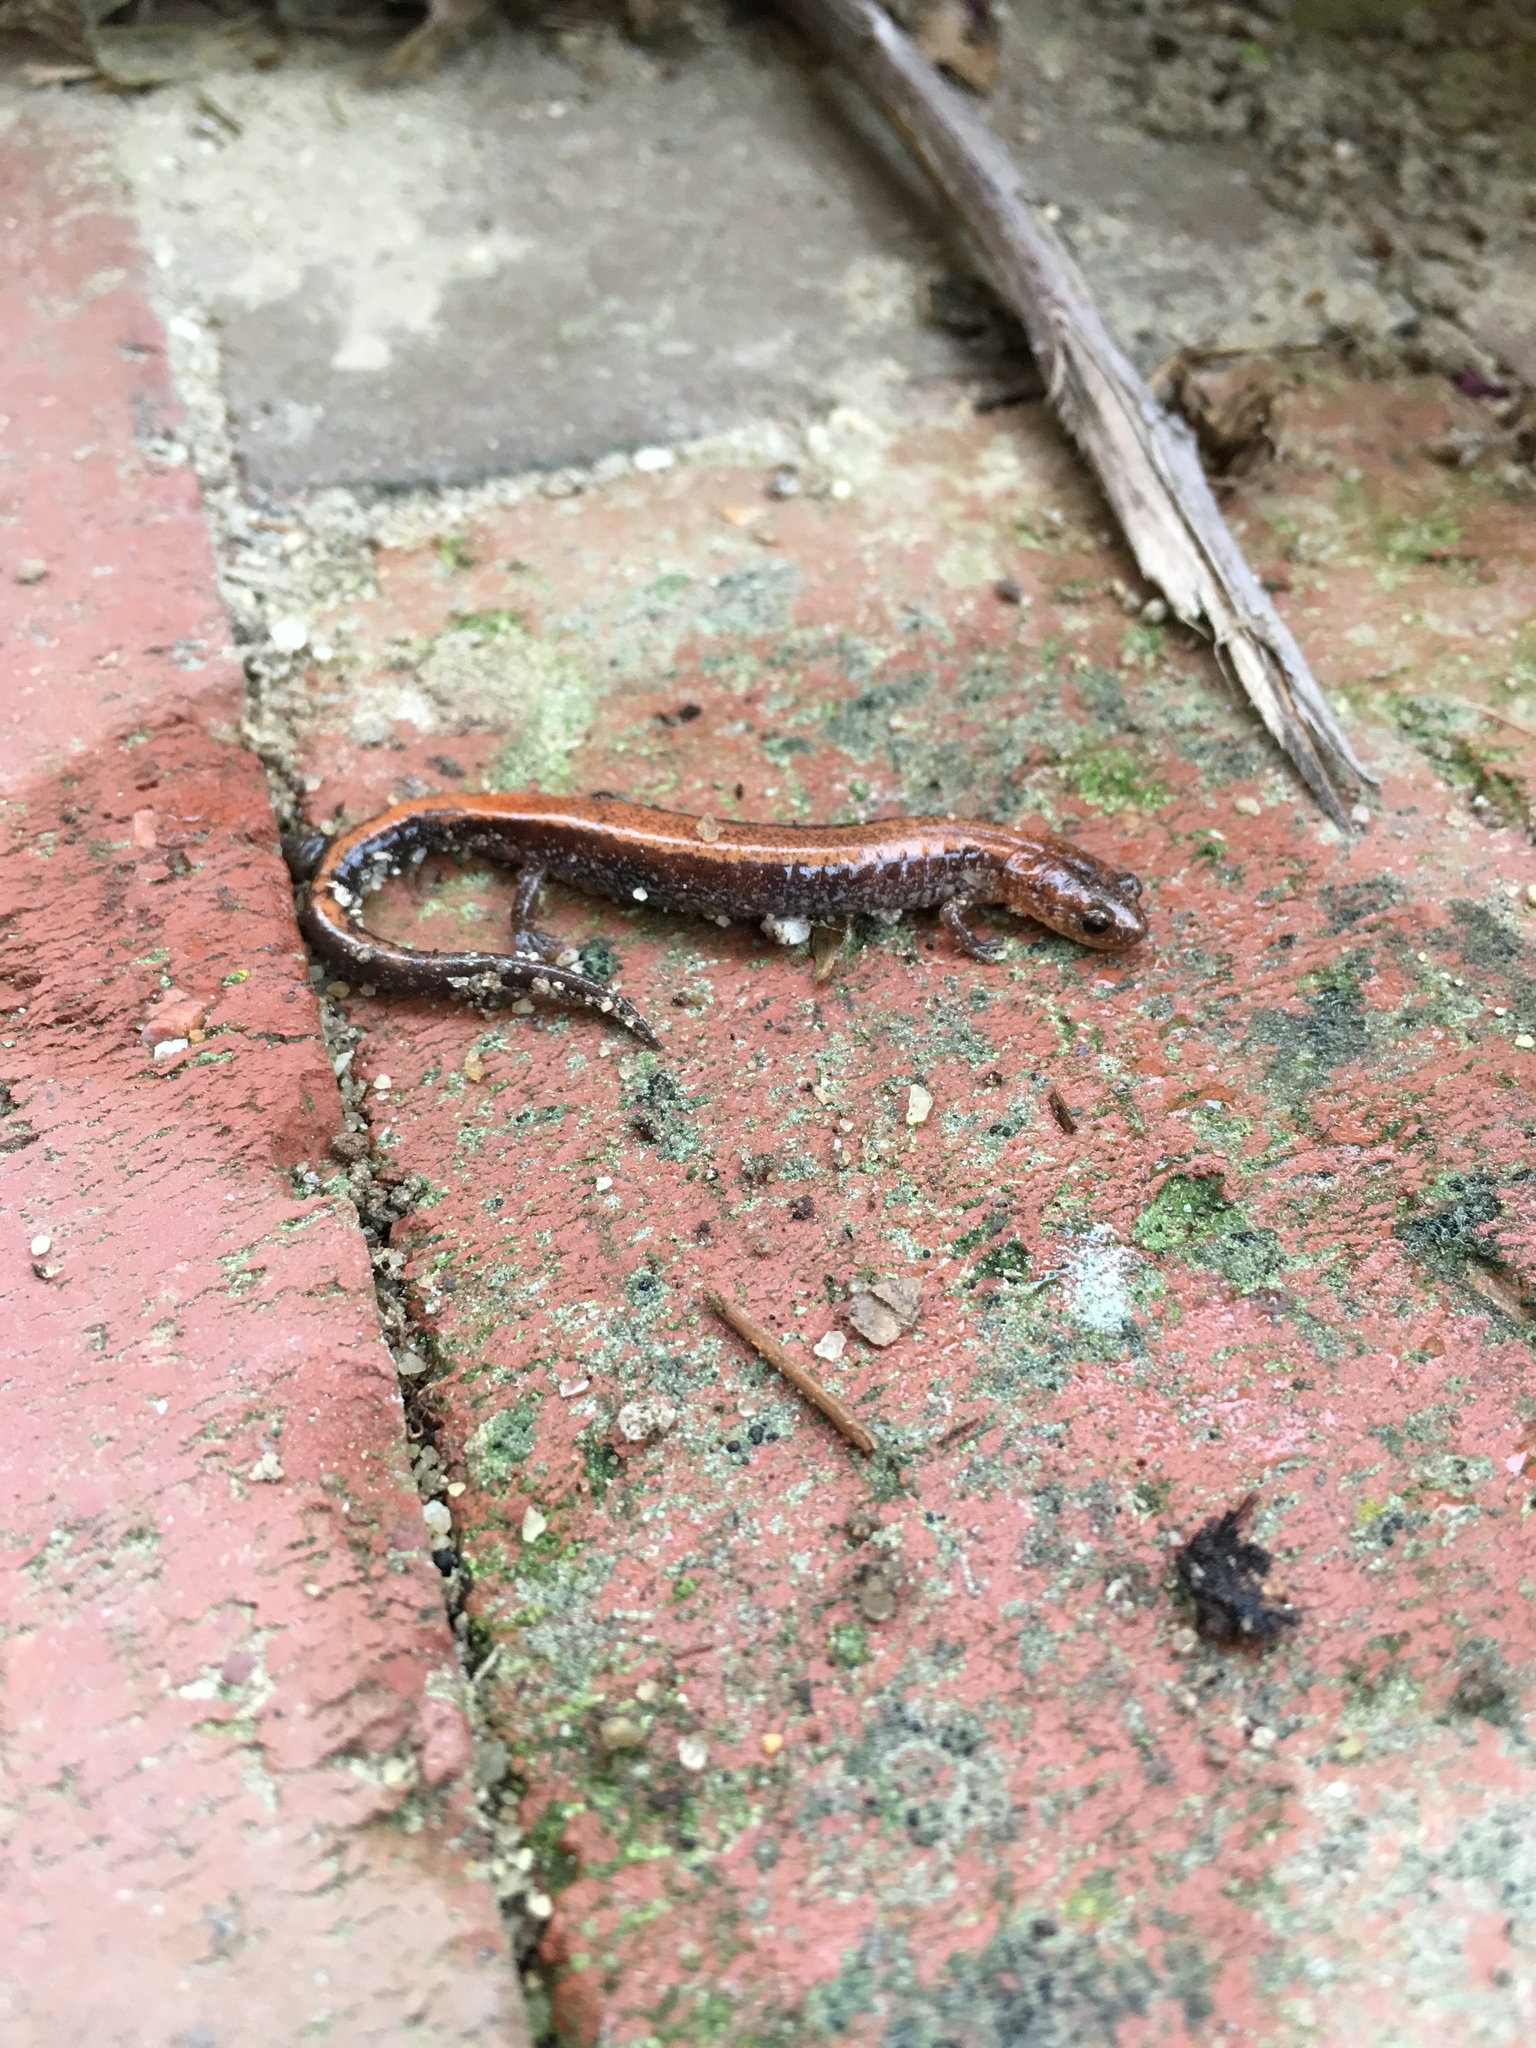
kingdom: Animalia
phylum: Chordata
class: Amphibia
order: Caudata
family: Plethodontidae
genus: Plethodon
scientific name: Plethodon cinereus
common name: Redback salamander
